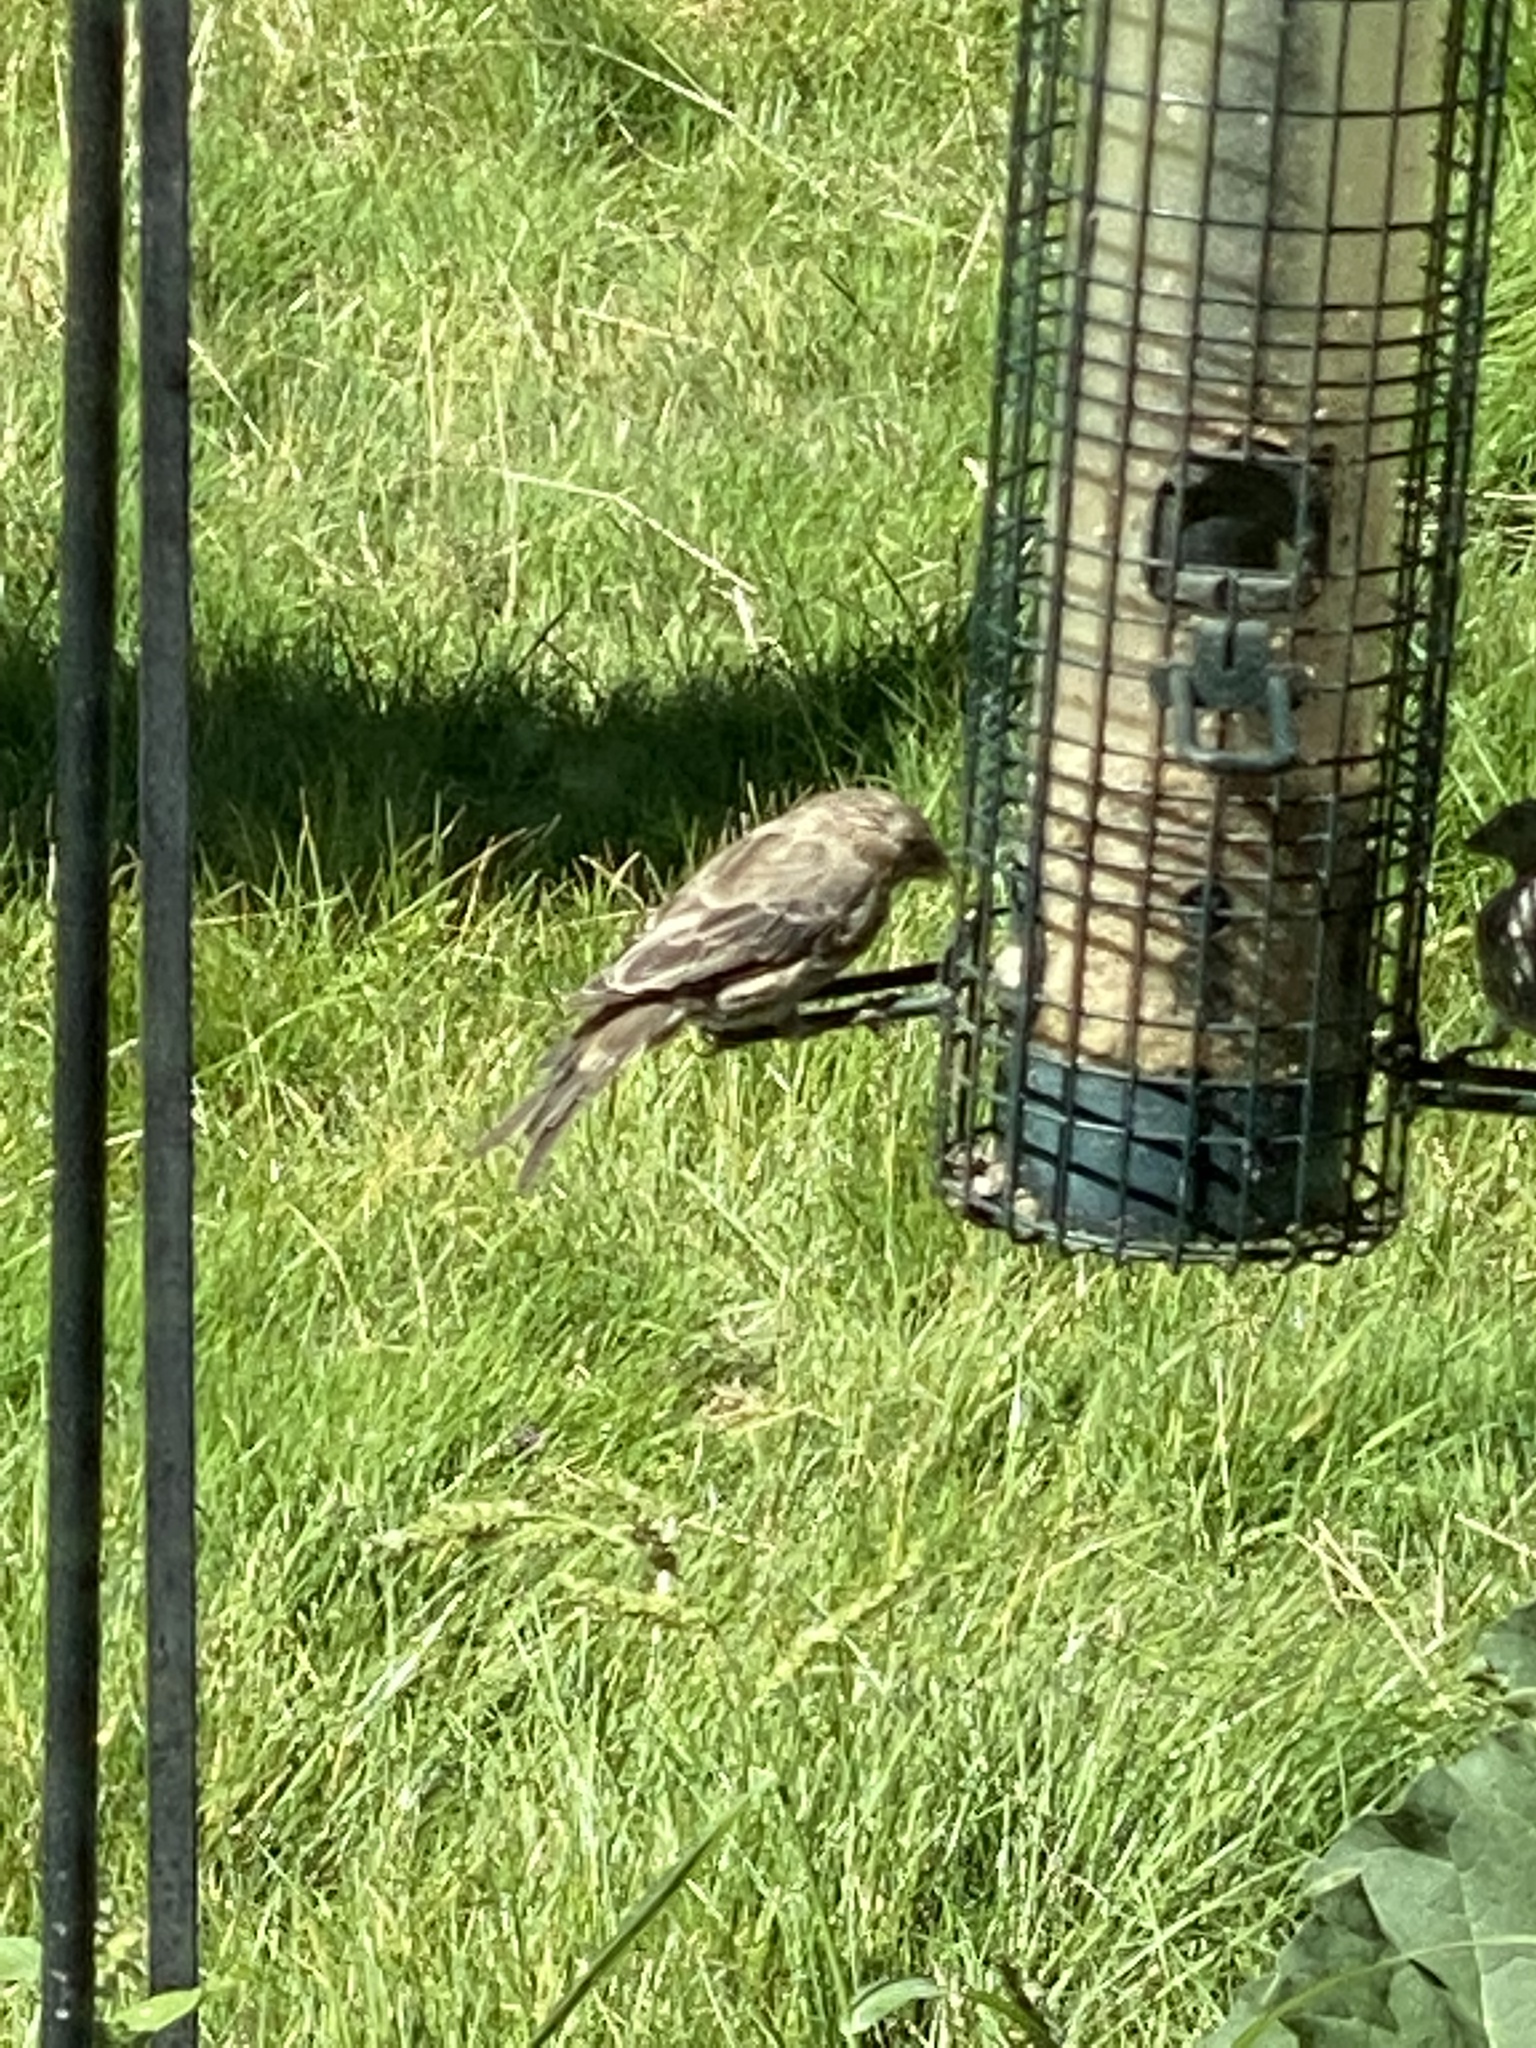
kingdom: Animalia
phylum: Chordata
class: Aves
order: Passeriformes
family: Fringillidae
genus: Haemorhous
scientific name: Haemorhous mexicanus
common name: House finch
